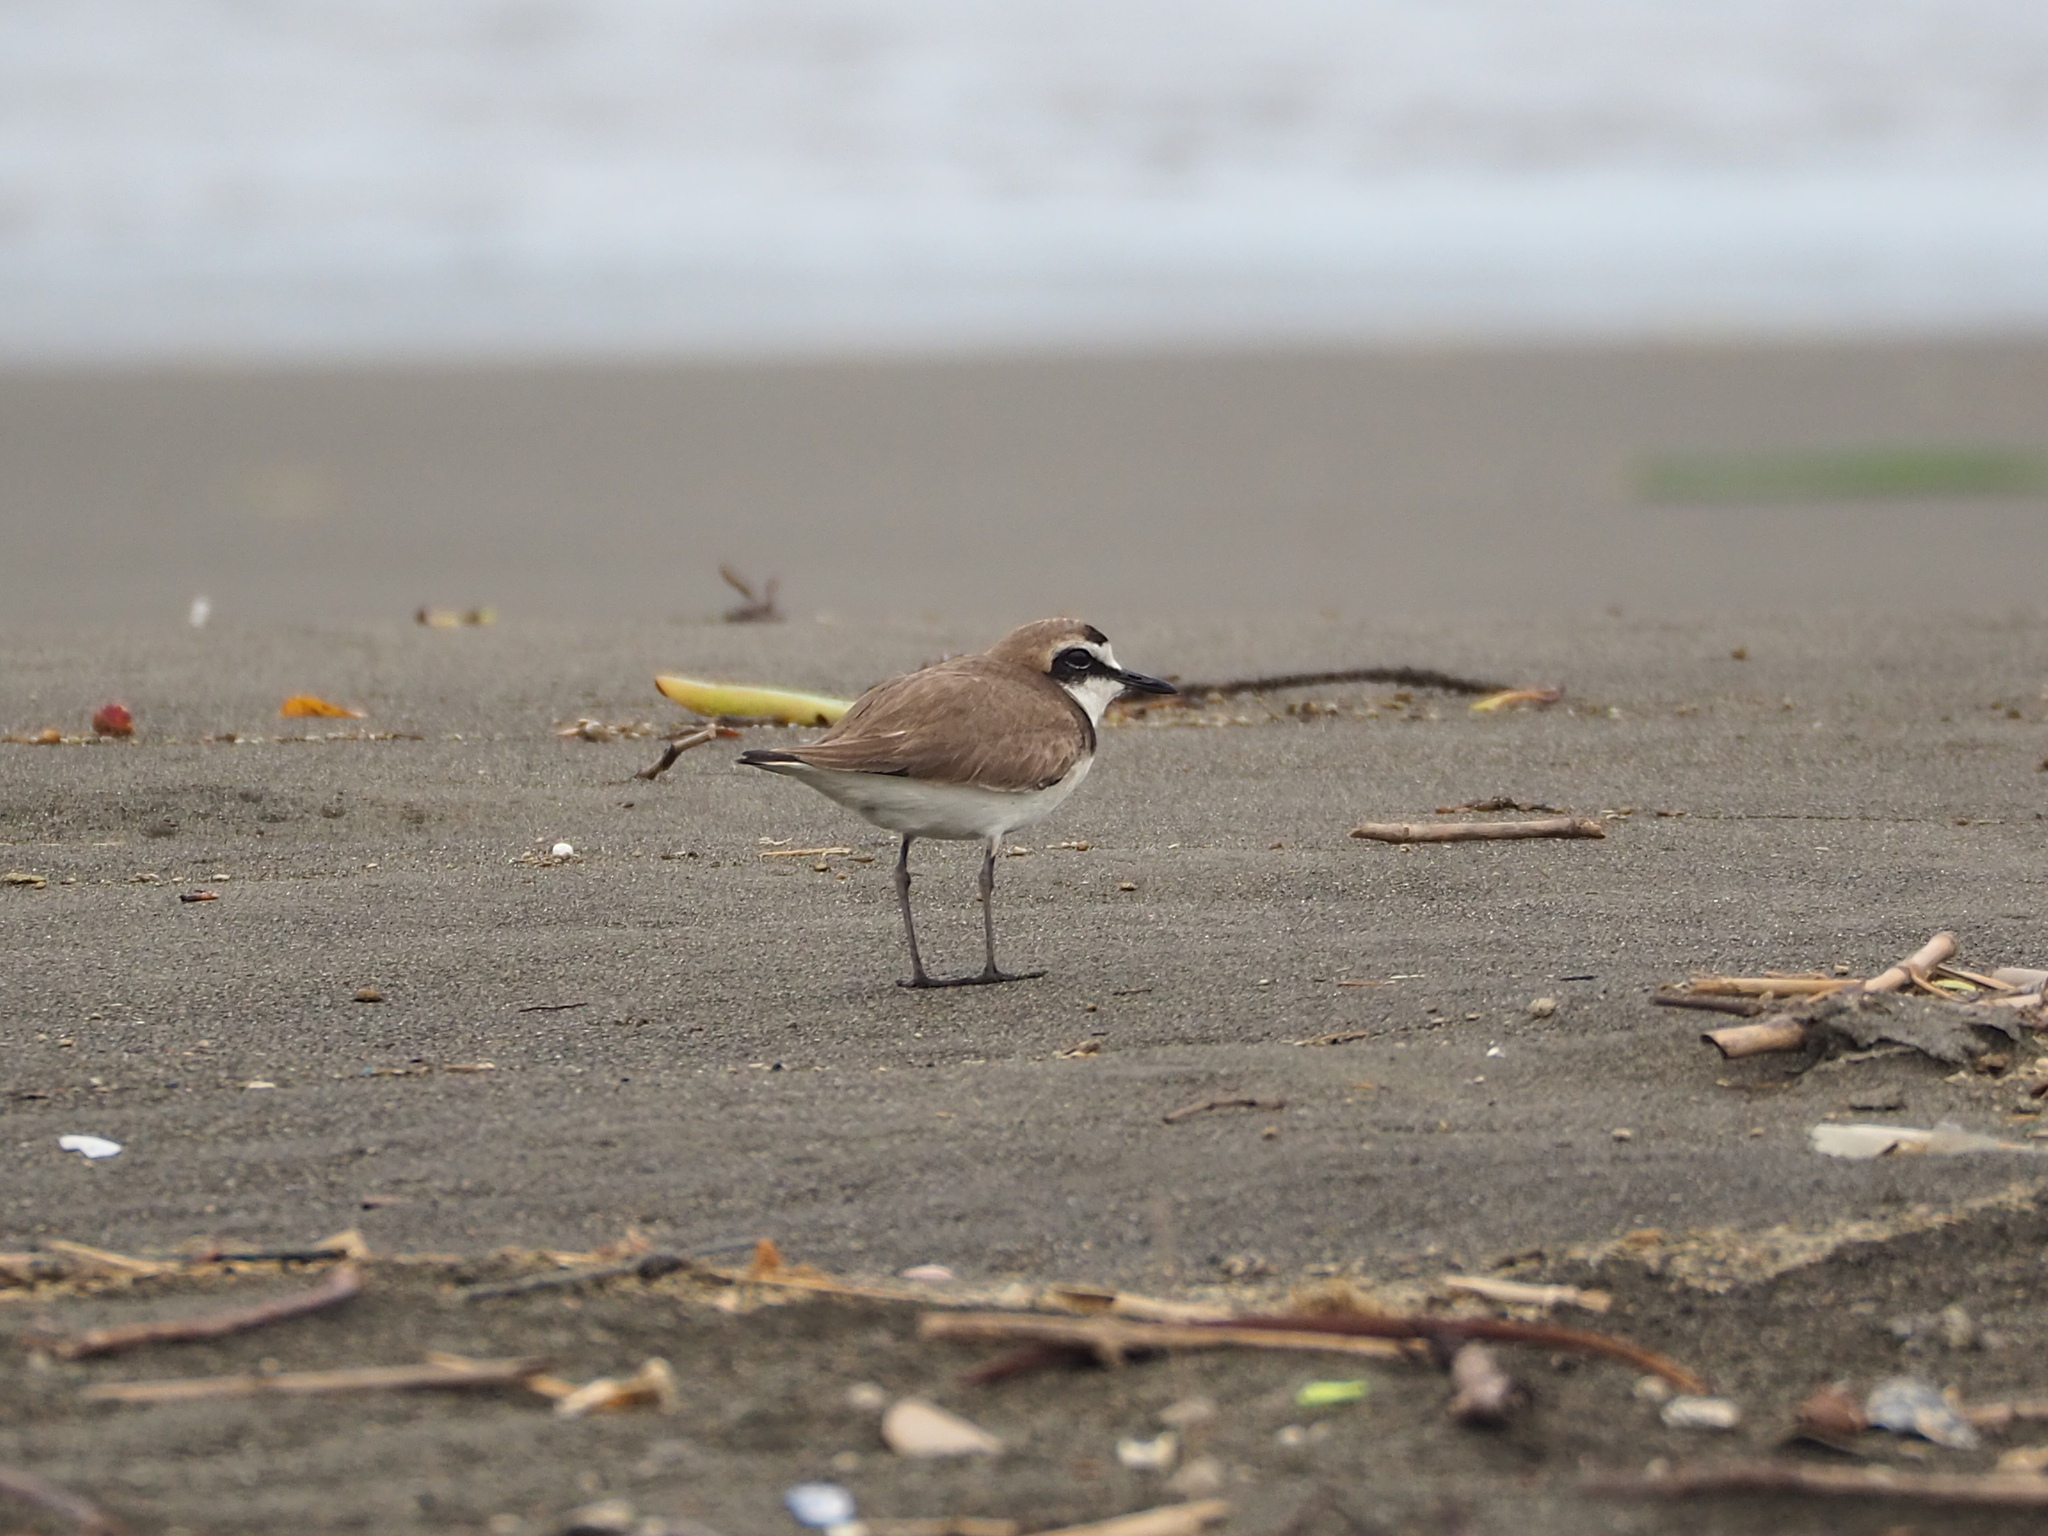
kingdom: Animalia
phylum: Chordata
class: Aves
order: Charadriiformes
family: Charadriidae
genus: Charadrius
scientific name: Charadrius alexandrinus
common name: Kentish plover
